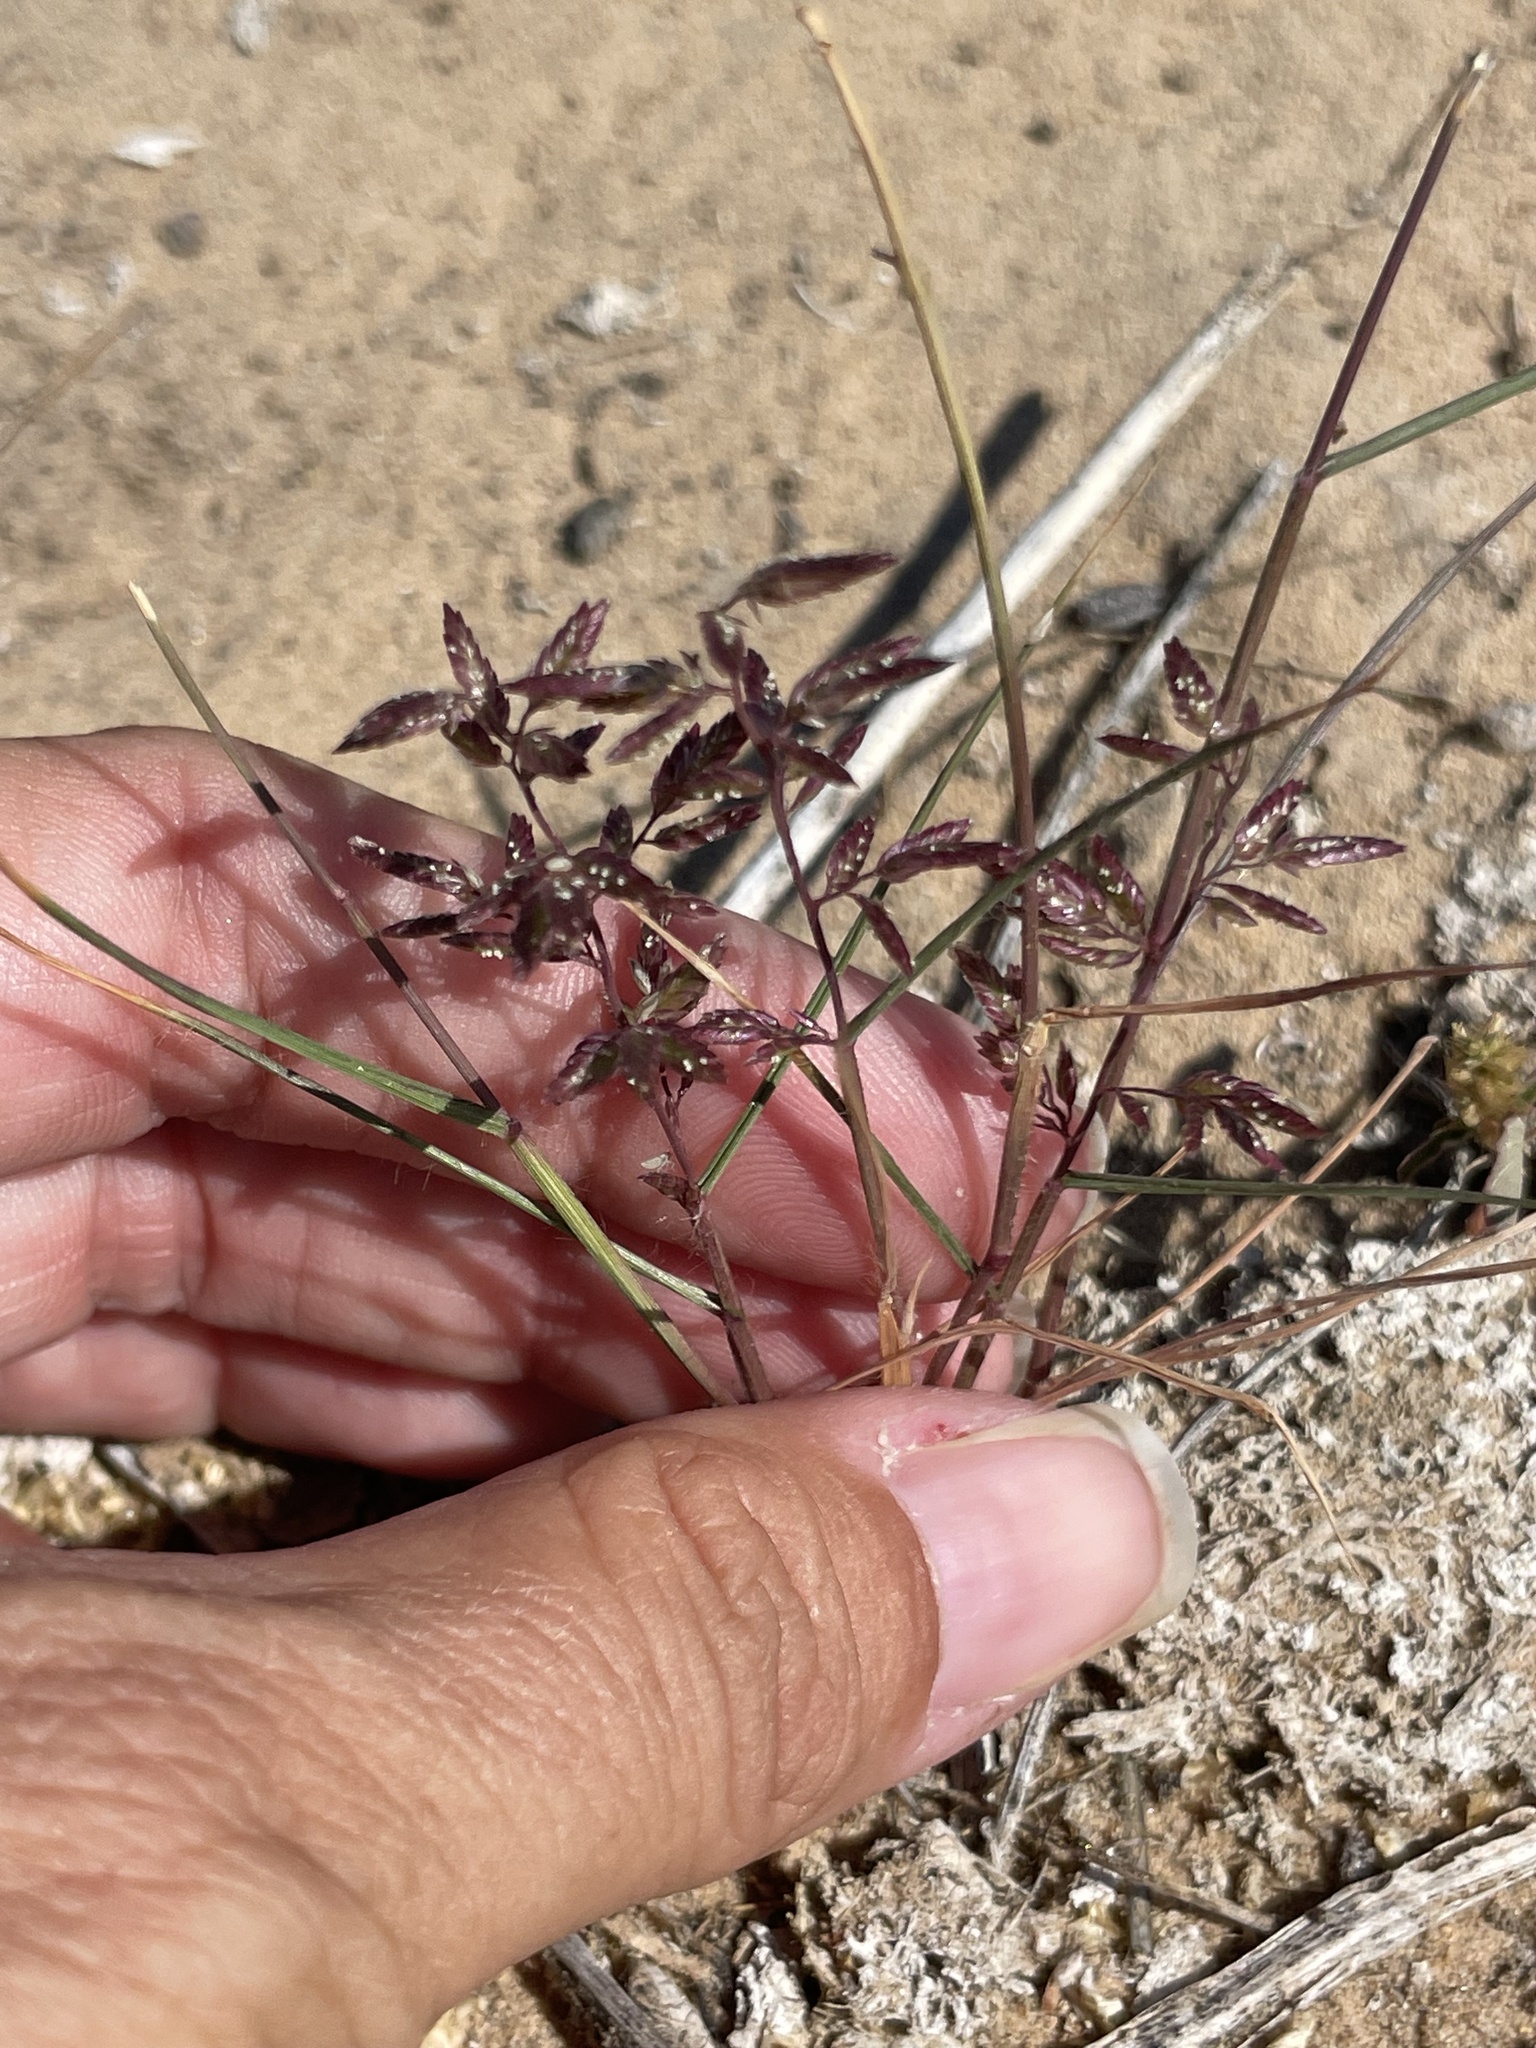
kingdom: Plantae
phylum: Tracheophyta
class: Liliopsida
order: Poales
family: Poaceae
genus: Eragrostis
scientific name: Eragrostis cilianensis
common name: Stinkgrass
